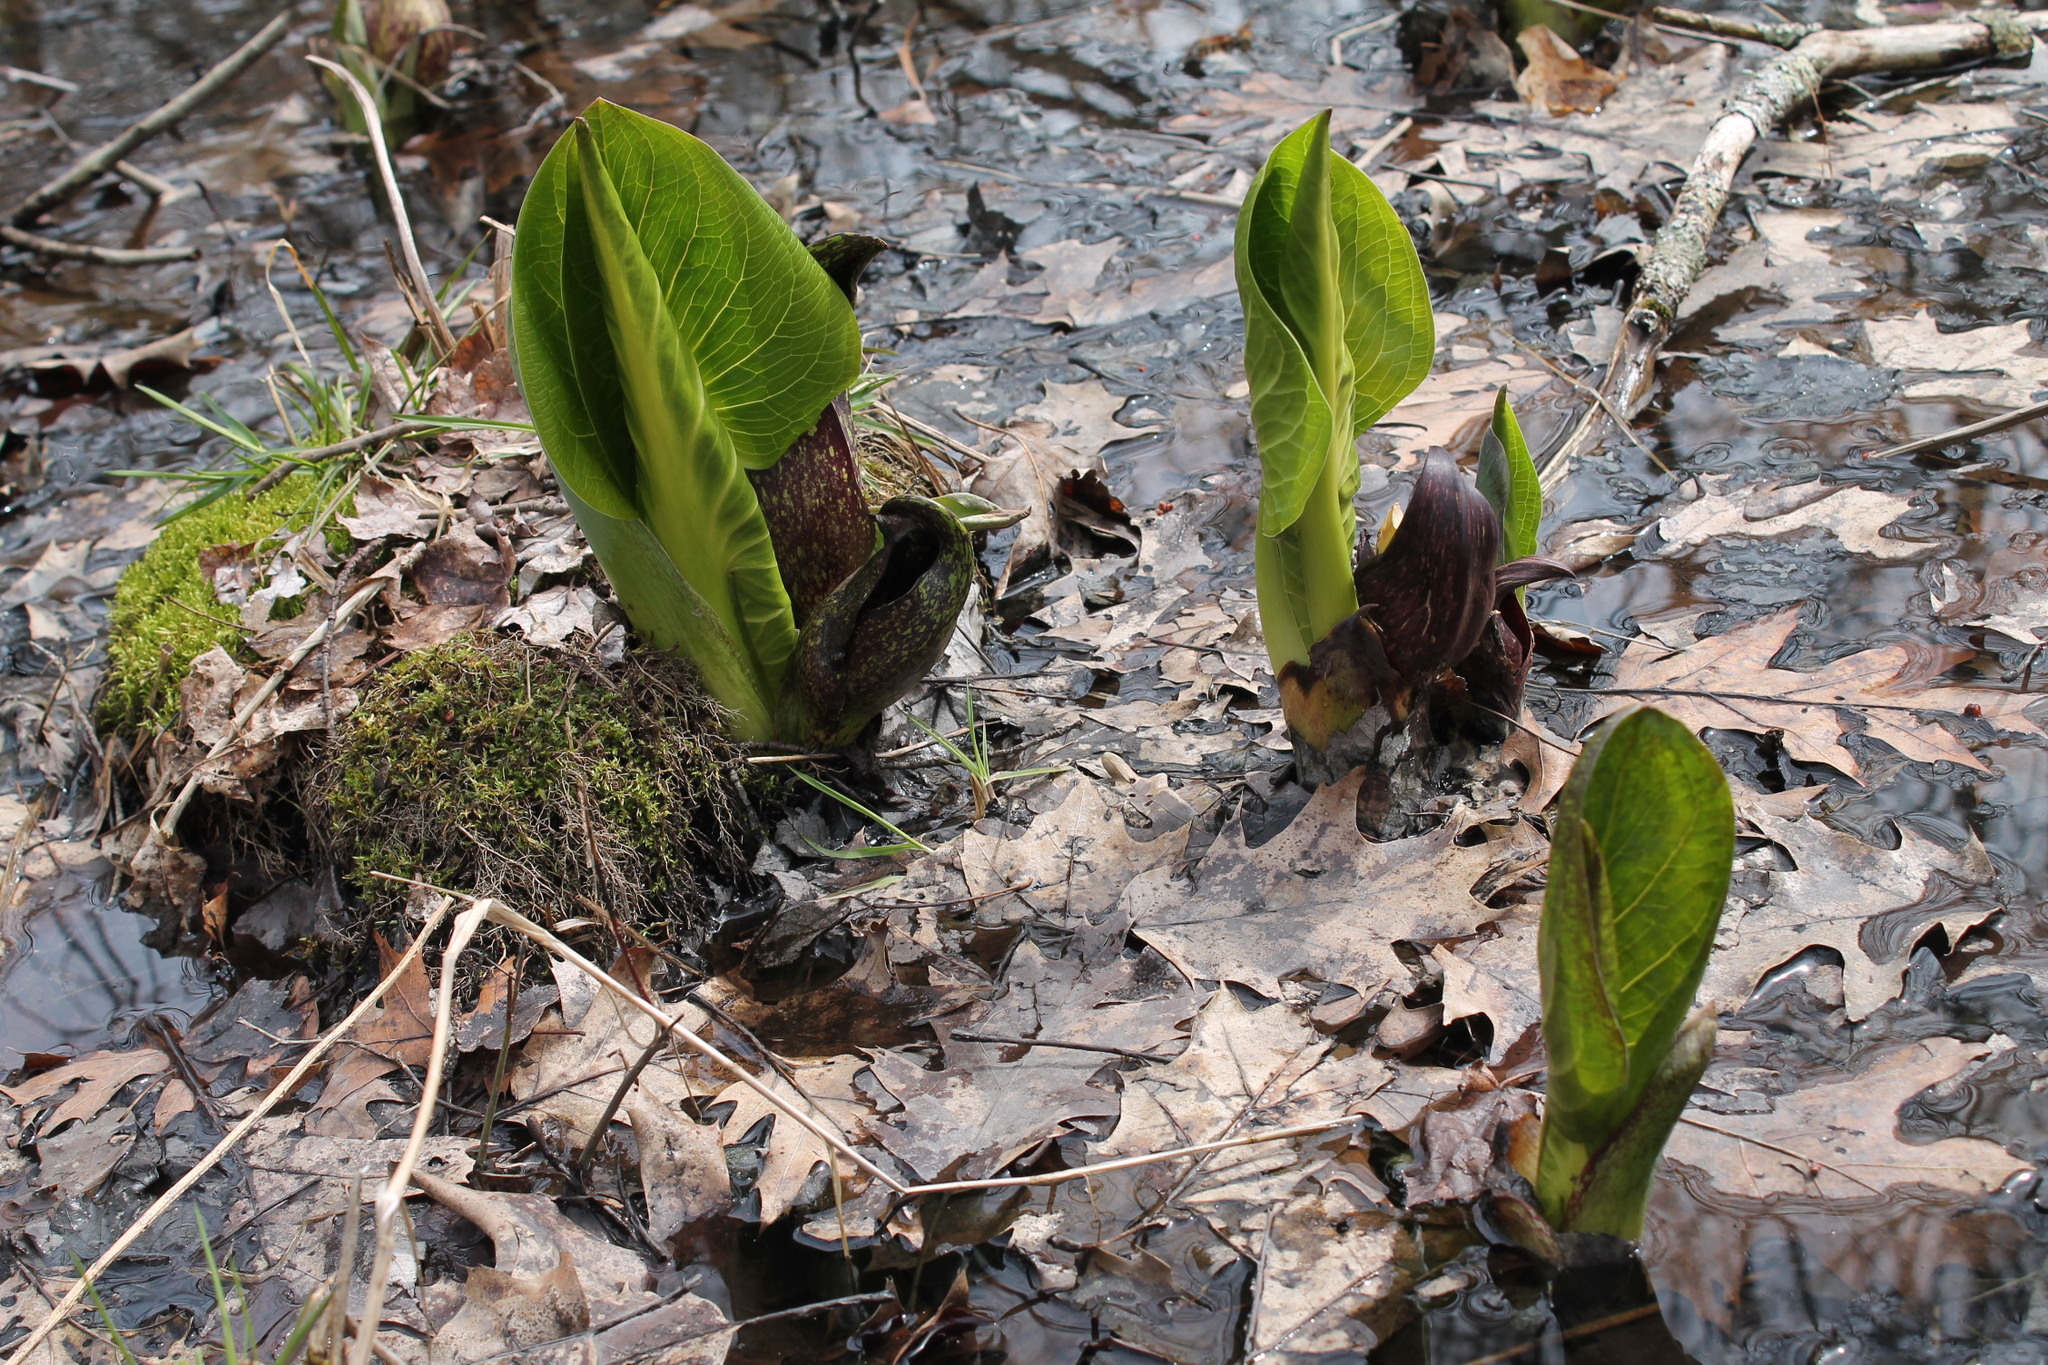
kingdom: Plantae
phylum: Tracheophyta
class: Liliopsida
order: Alismatales
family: Araceae
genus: Symplocarpus
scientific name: Symplocarpus foetidus
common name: Eastern skunk cabbage
